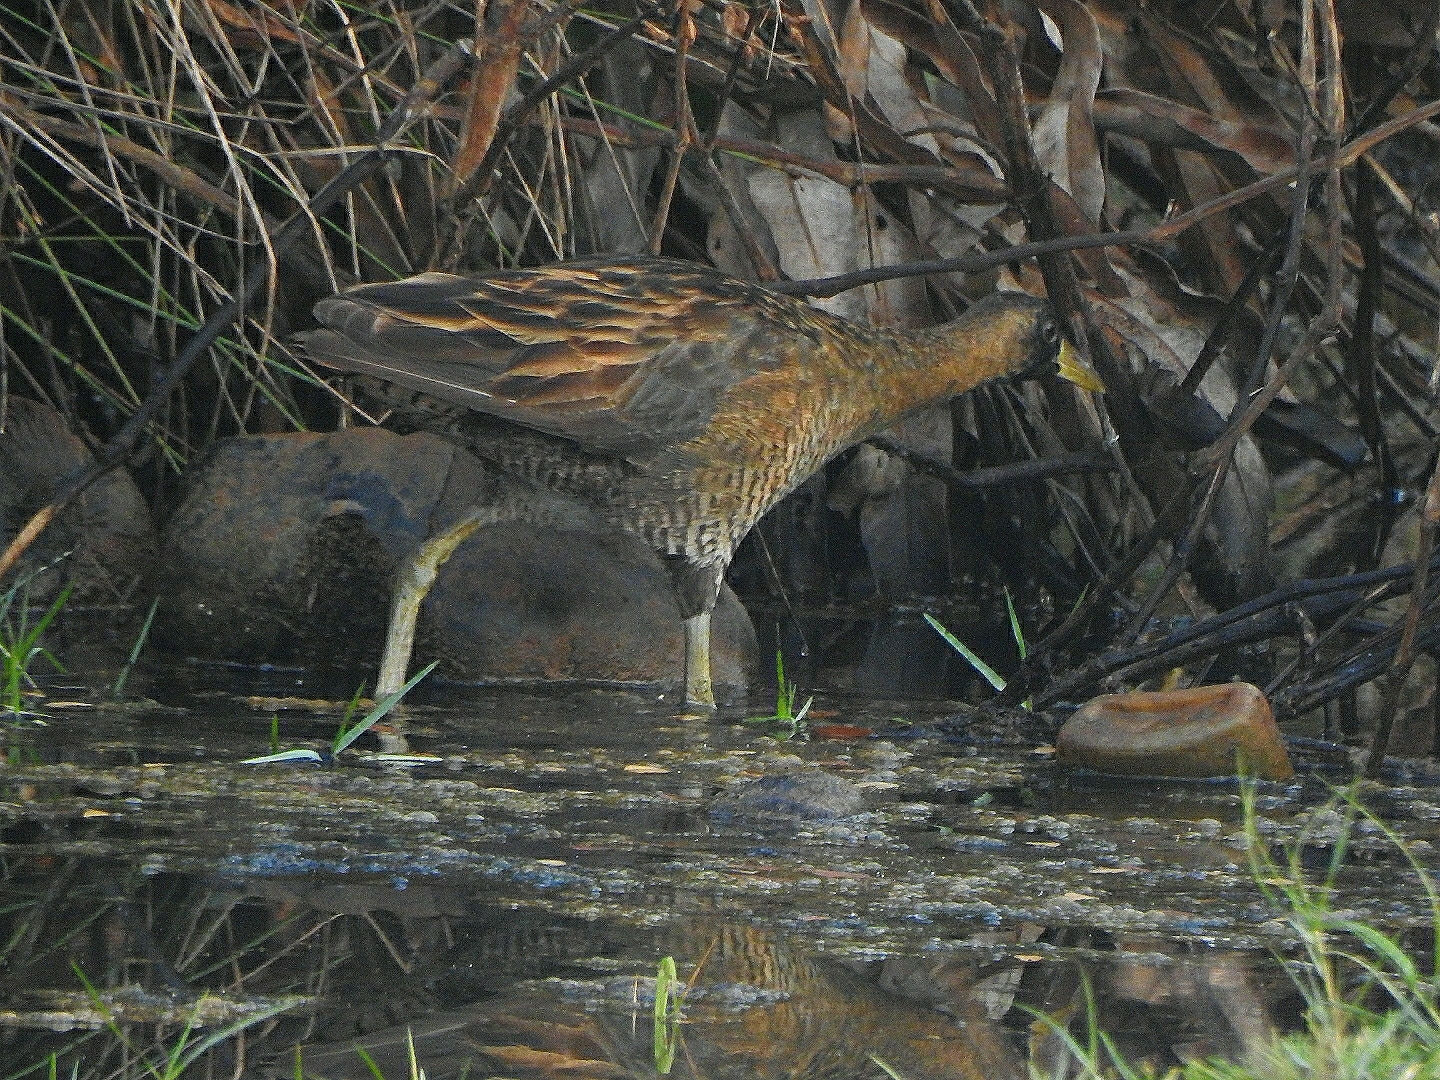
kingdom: Animalia
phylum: Chordata
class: Aves
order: Gruiformes
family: Rallidae
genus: Gallicrex
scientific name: Gallicrex cinerea
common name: Watercock
